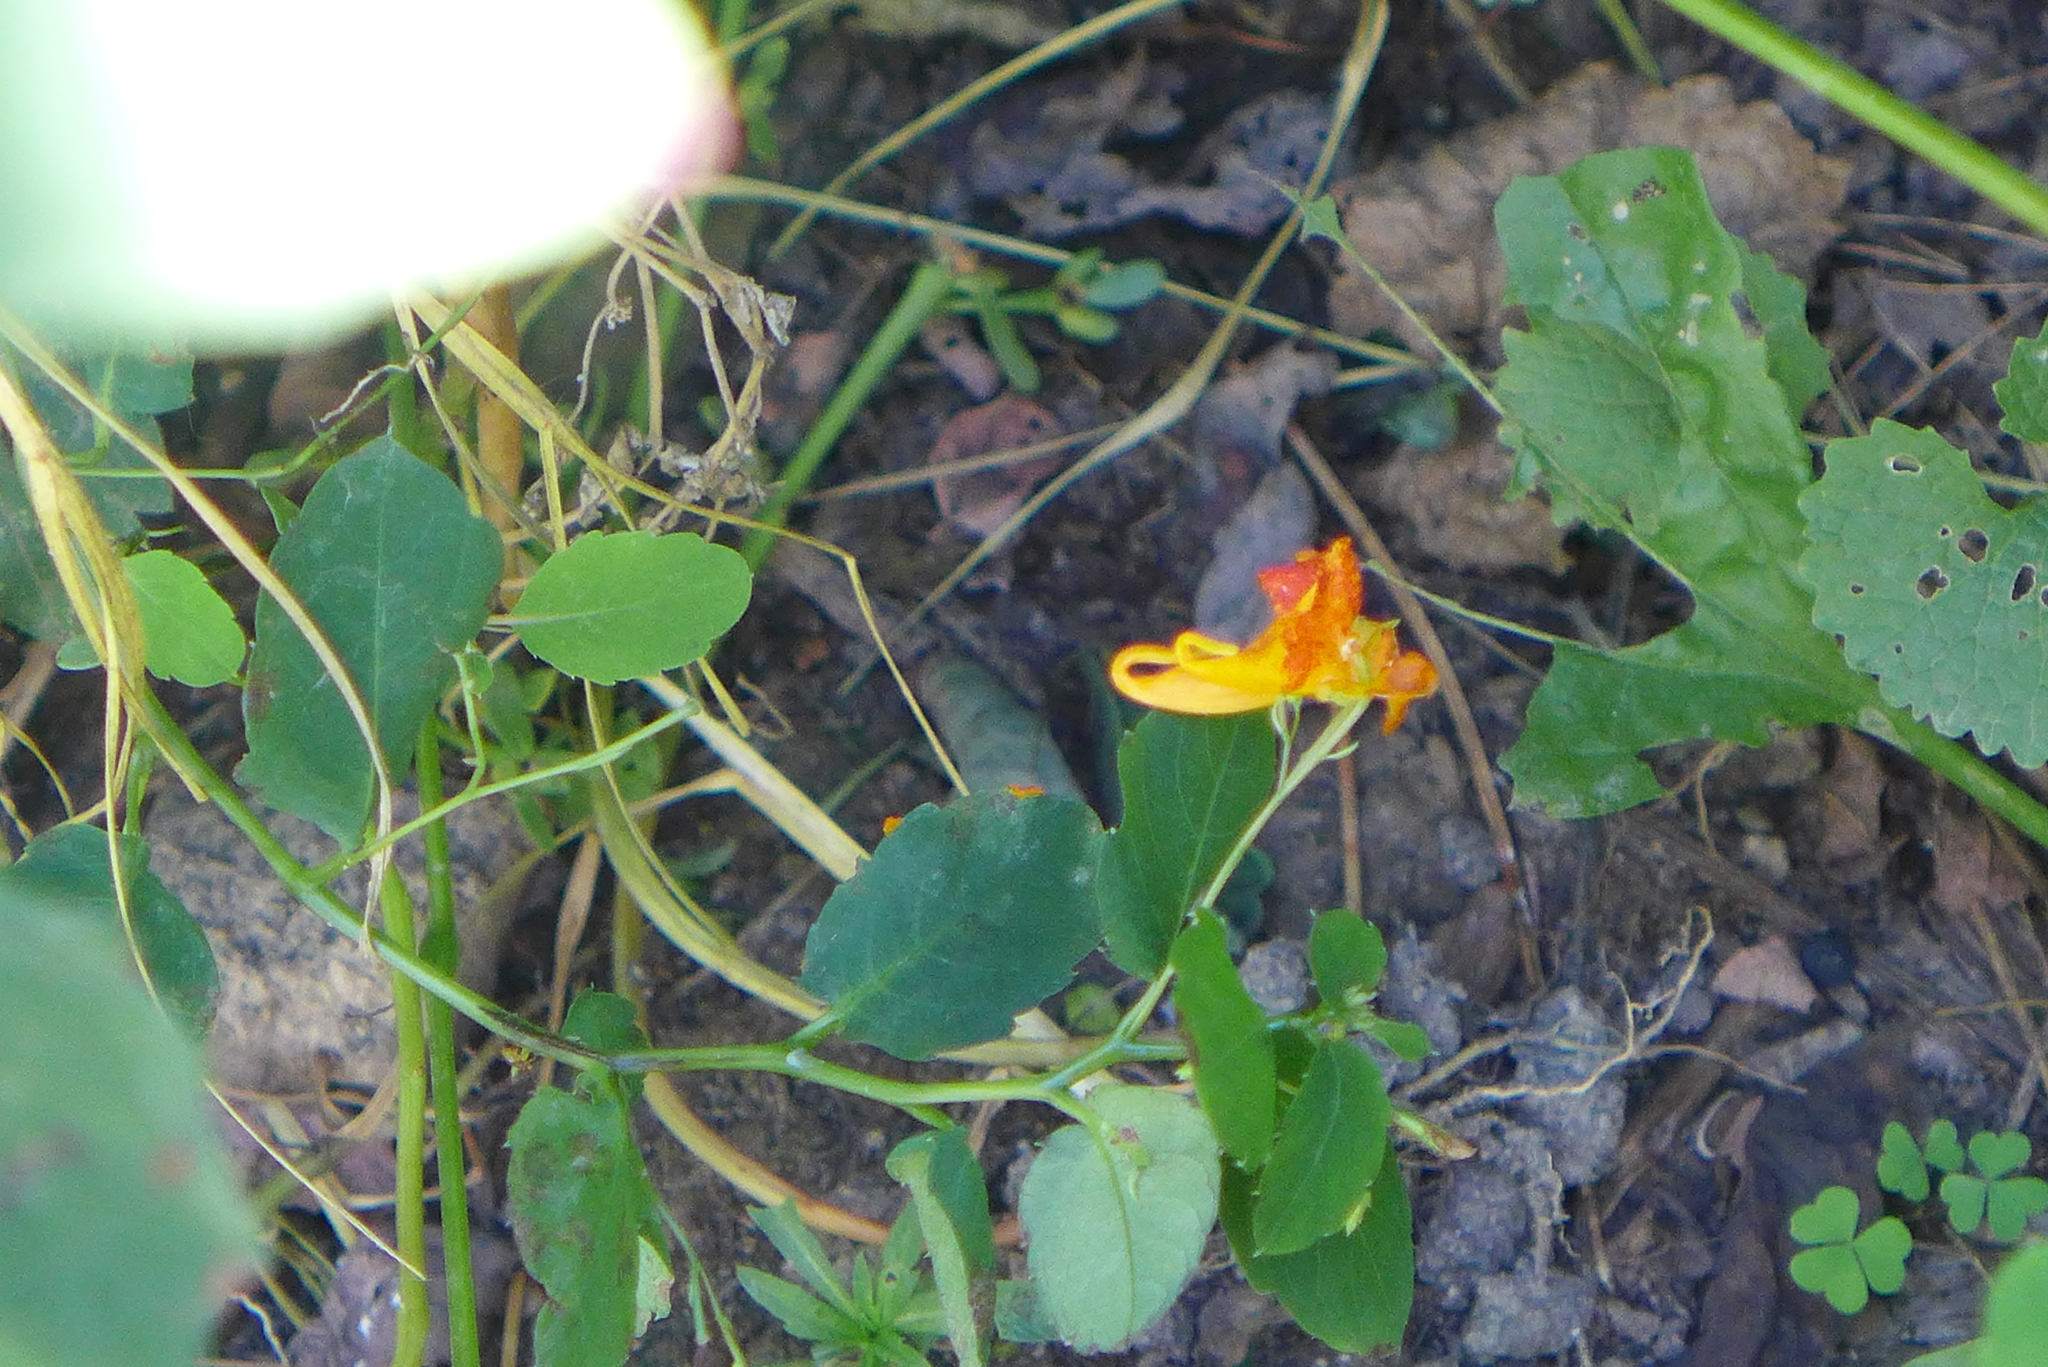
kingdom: Plantae
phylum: Tracheophyta
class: Magnoliopsida
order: Ericales
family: Balsaminaceae
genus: Impatiens
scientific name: Impatiens capensis
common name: Orange balsam
